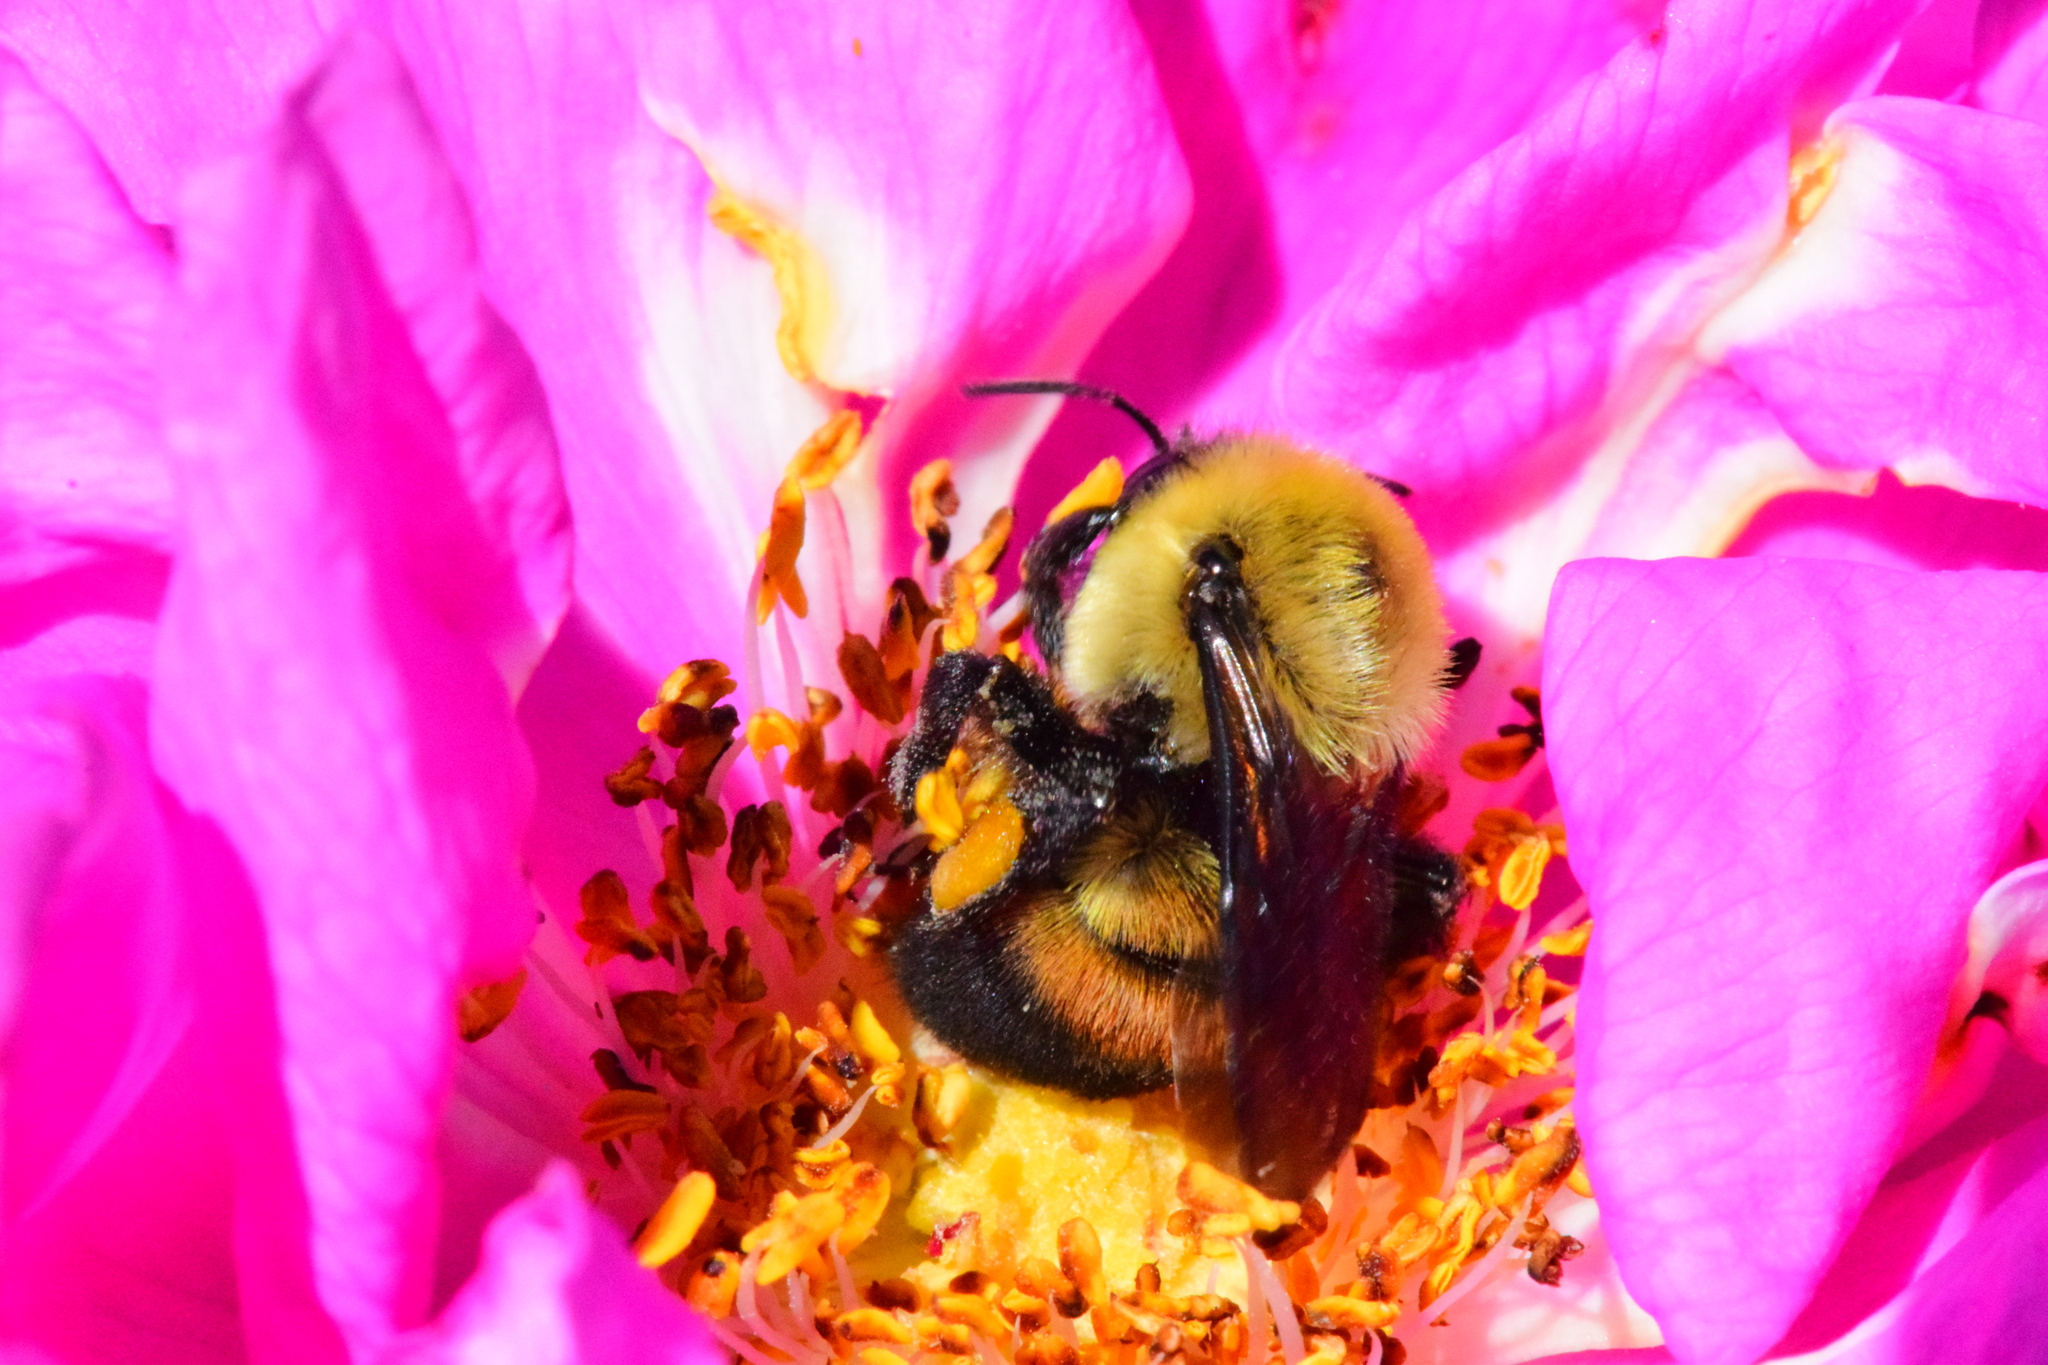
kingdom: Animalia
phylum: Arthropoda
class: Insecta
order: Hymenoptera
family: Apidae
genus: Bombus
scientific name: Bombus griseocollis
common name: Brown-belted bumble bee
